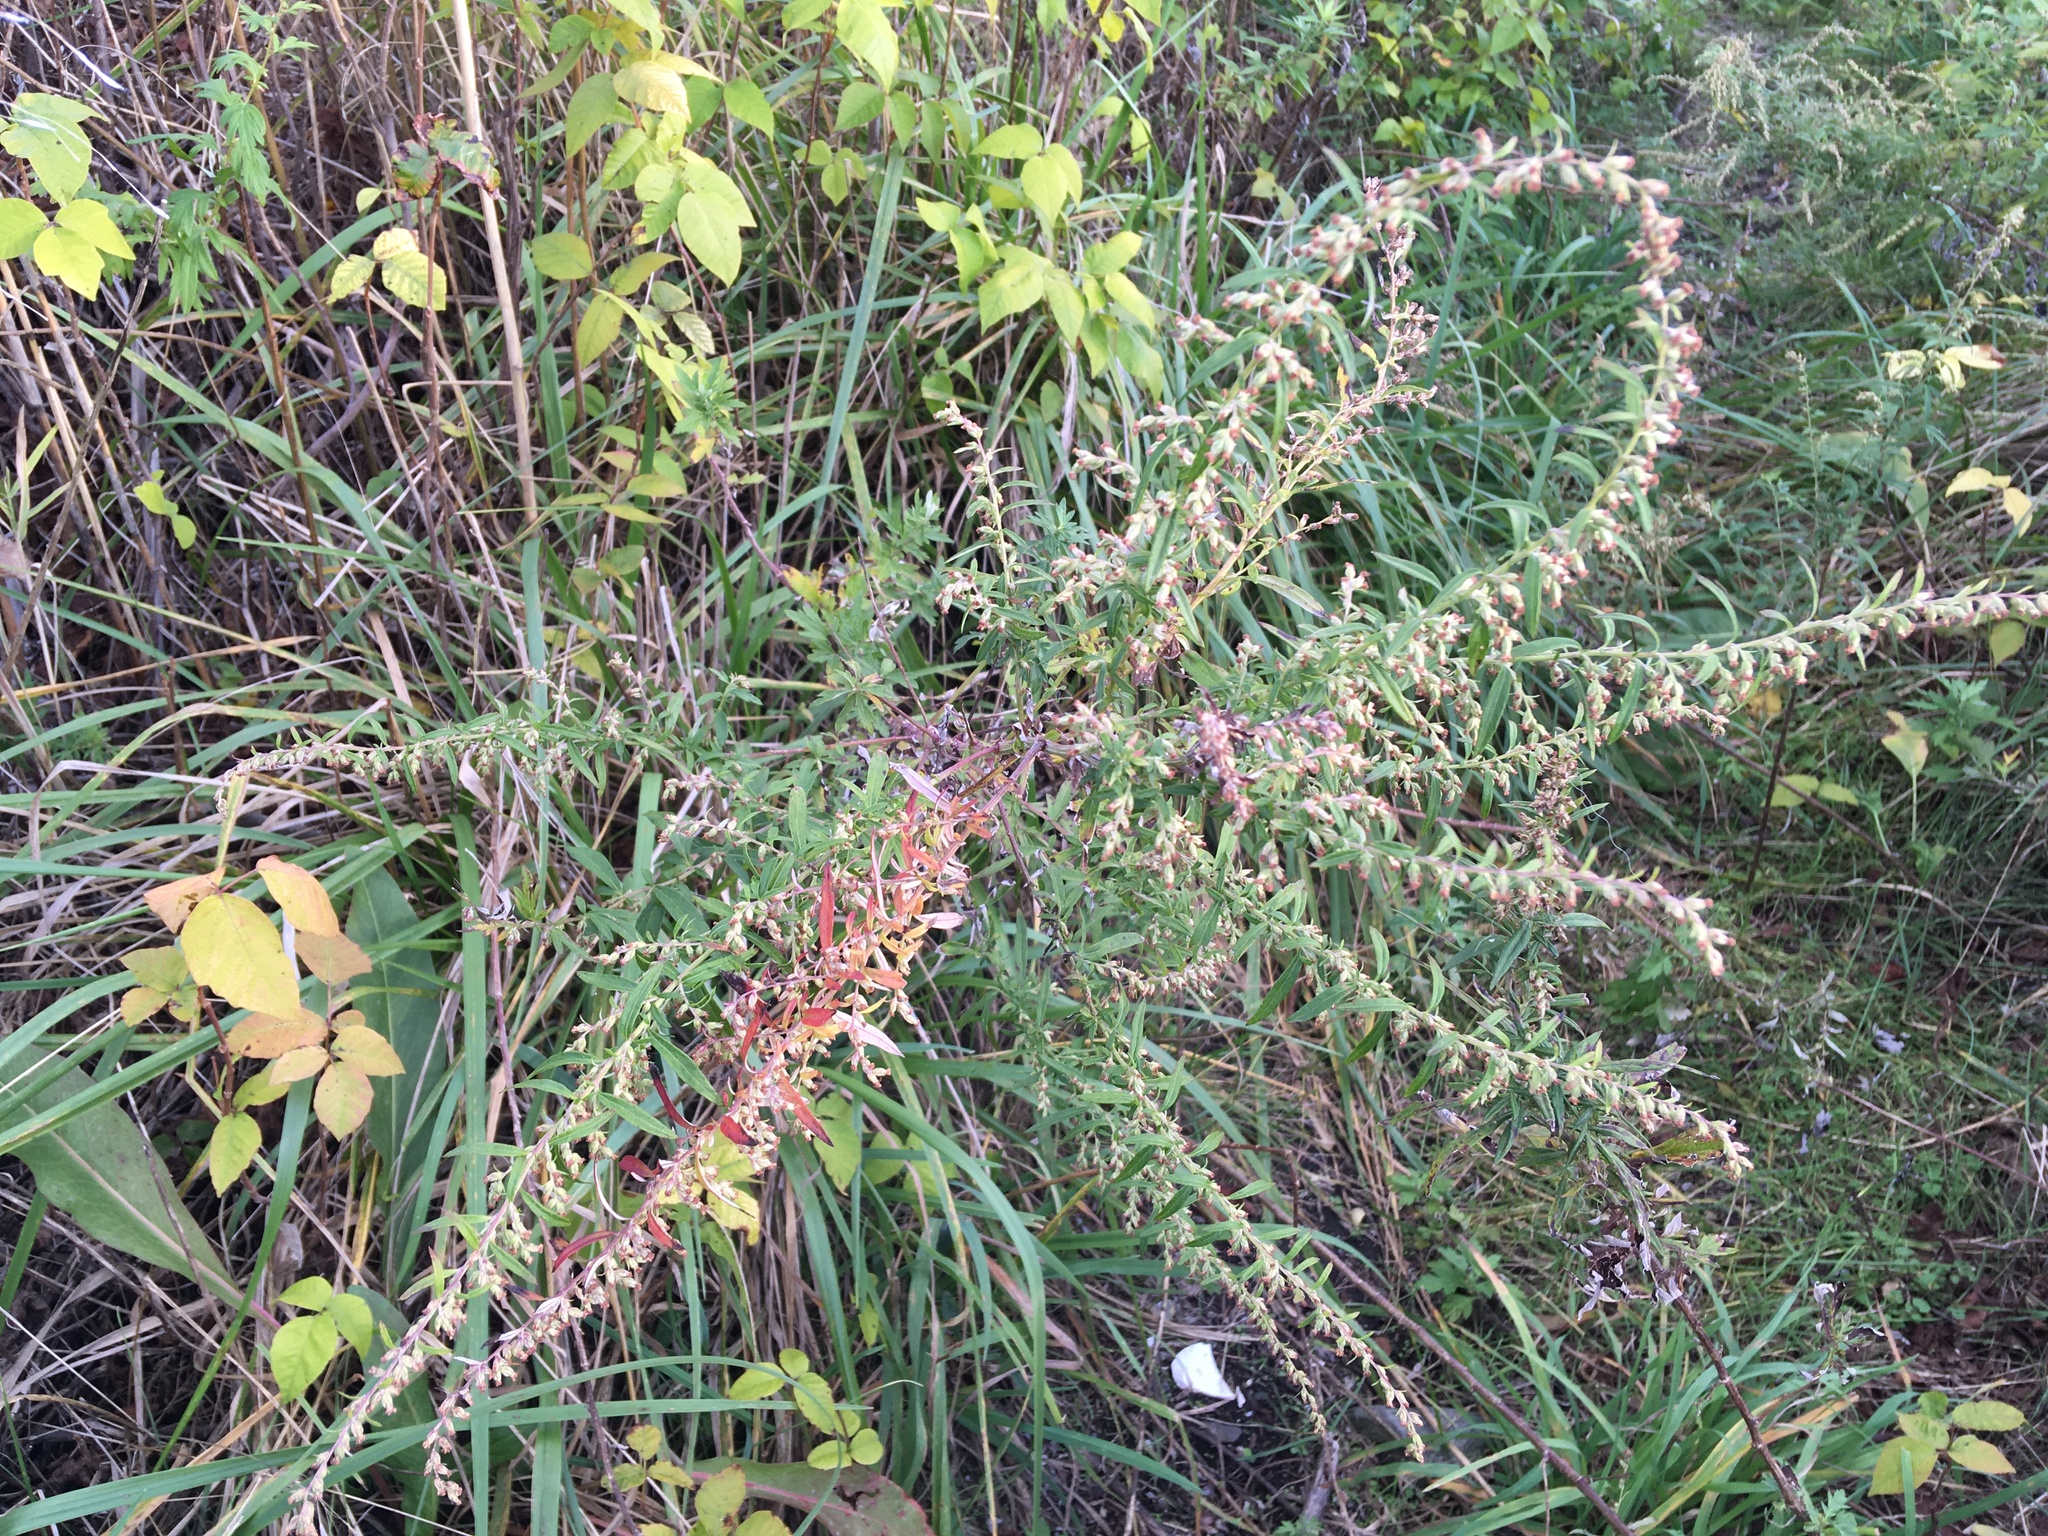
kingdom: Plantae
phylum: Tracheophyta
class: Magnoliopsida
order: Asterales
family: Asteraceae
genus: Artemisia
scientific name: Artemisia vulgaris
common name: Mugwort
